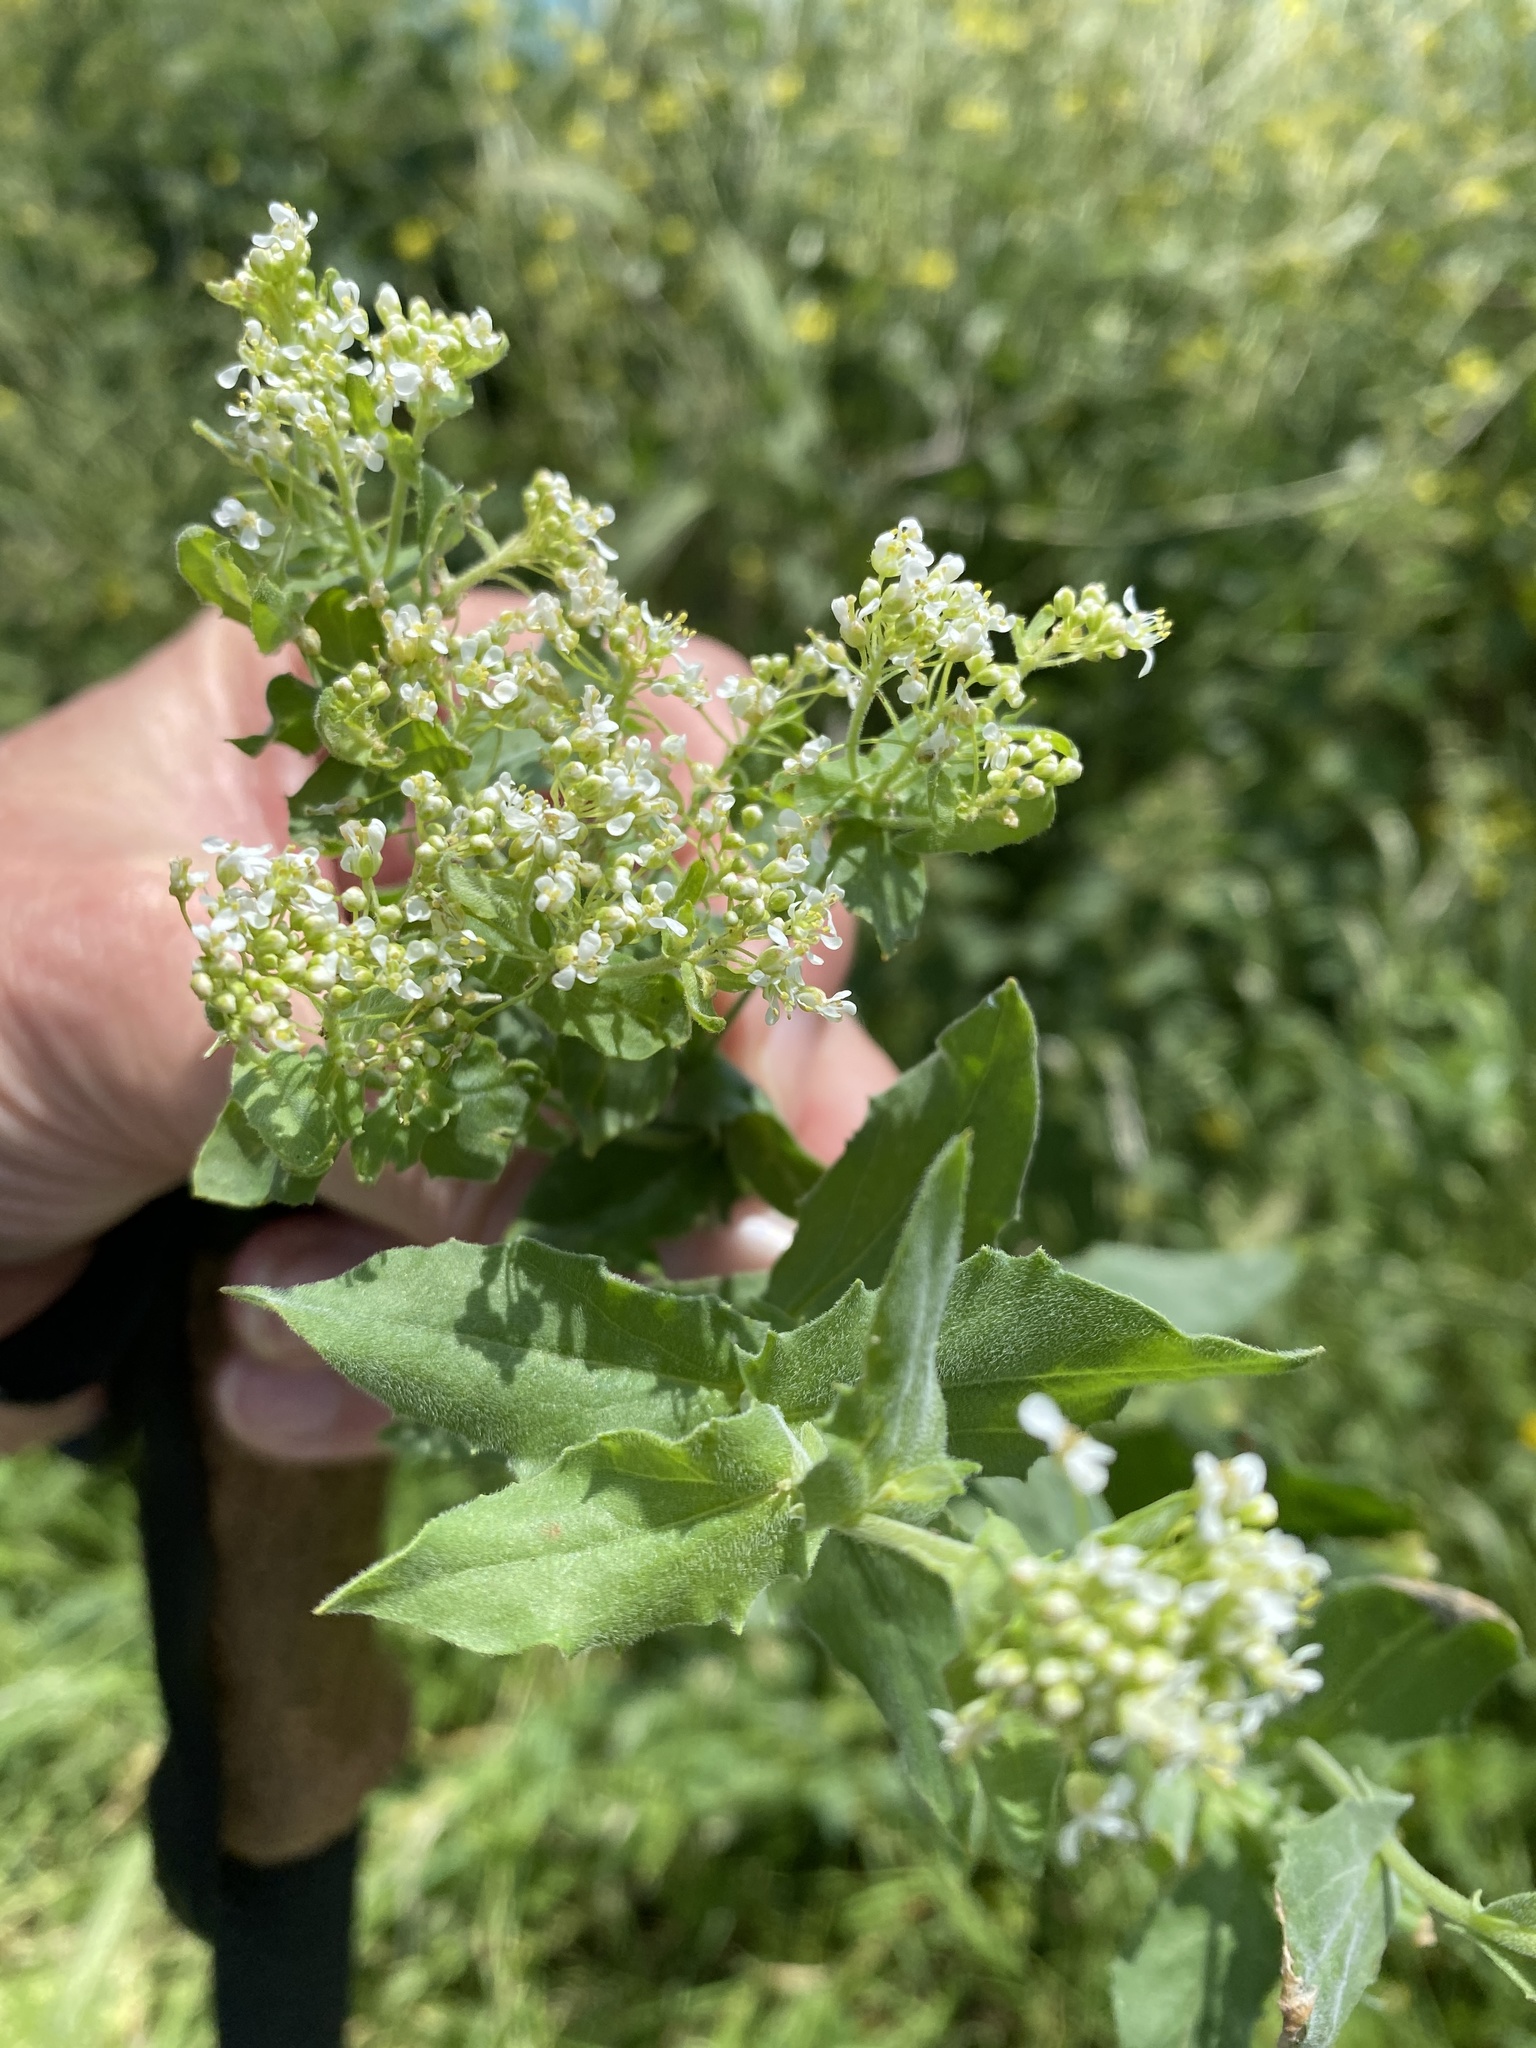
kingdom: Plantae
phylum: Tracheophyta
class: Magnoliopsida
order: Brassicales
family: Brassicaceae
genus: Lepidium
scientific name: Lepidium draba
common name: Hoary cress
